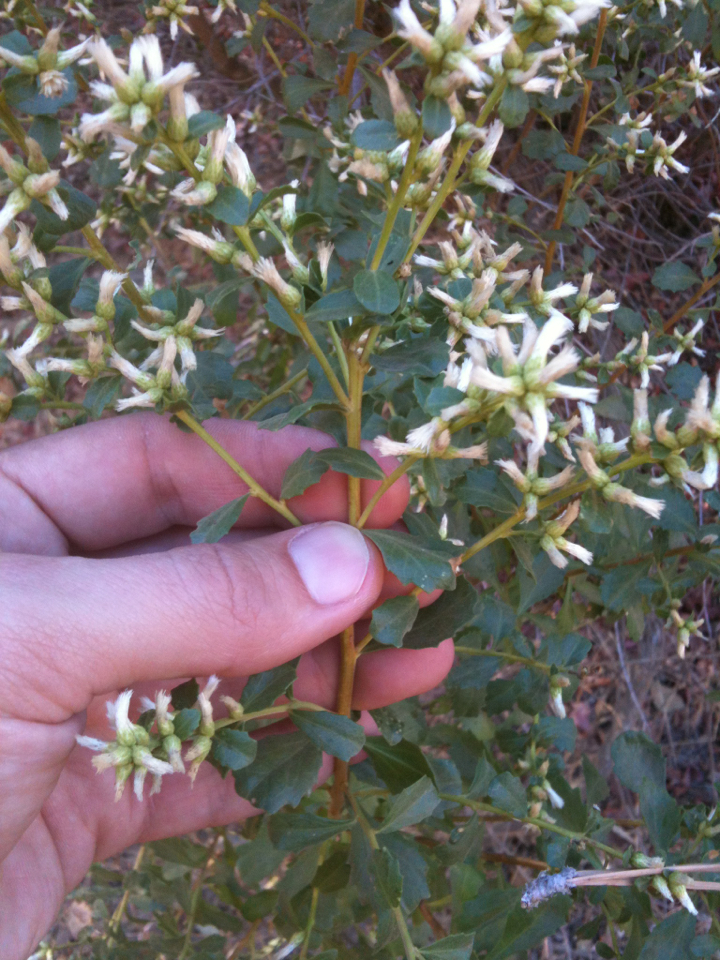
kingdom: Plantae
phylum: Tracheophyta
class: Magnoliopsida
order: Asterales
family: Asteraceae
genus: Baccharis
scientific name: Baccharis pilularis
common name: Coyotebrush
